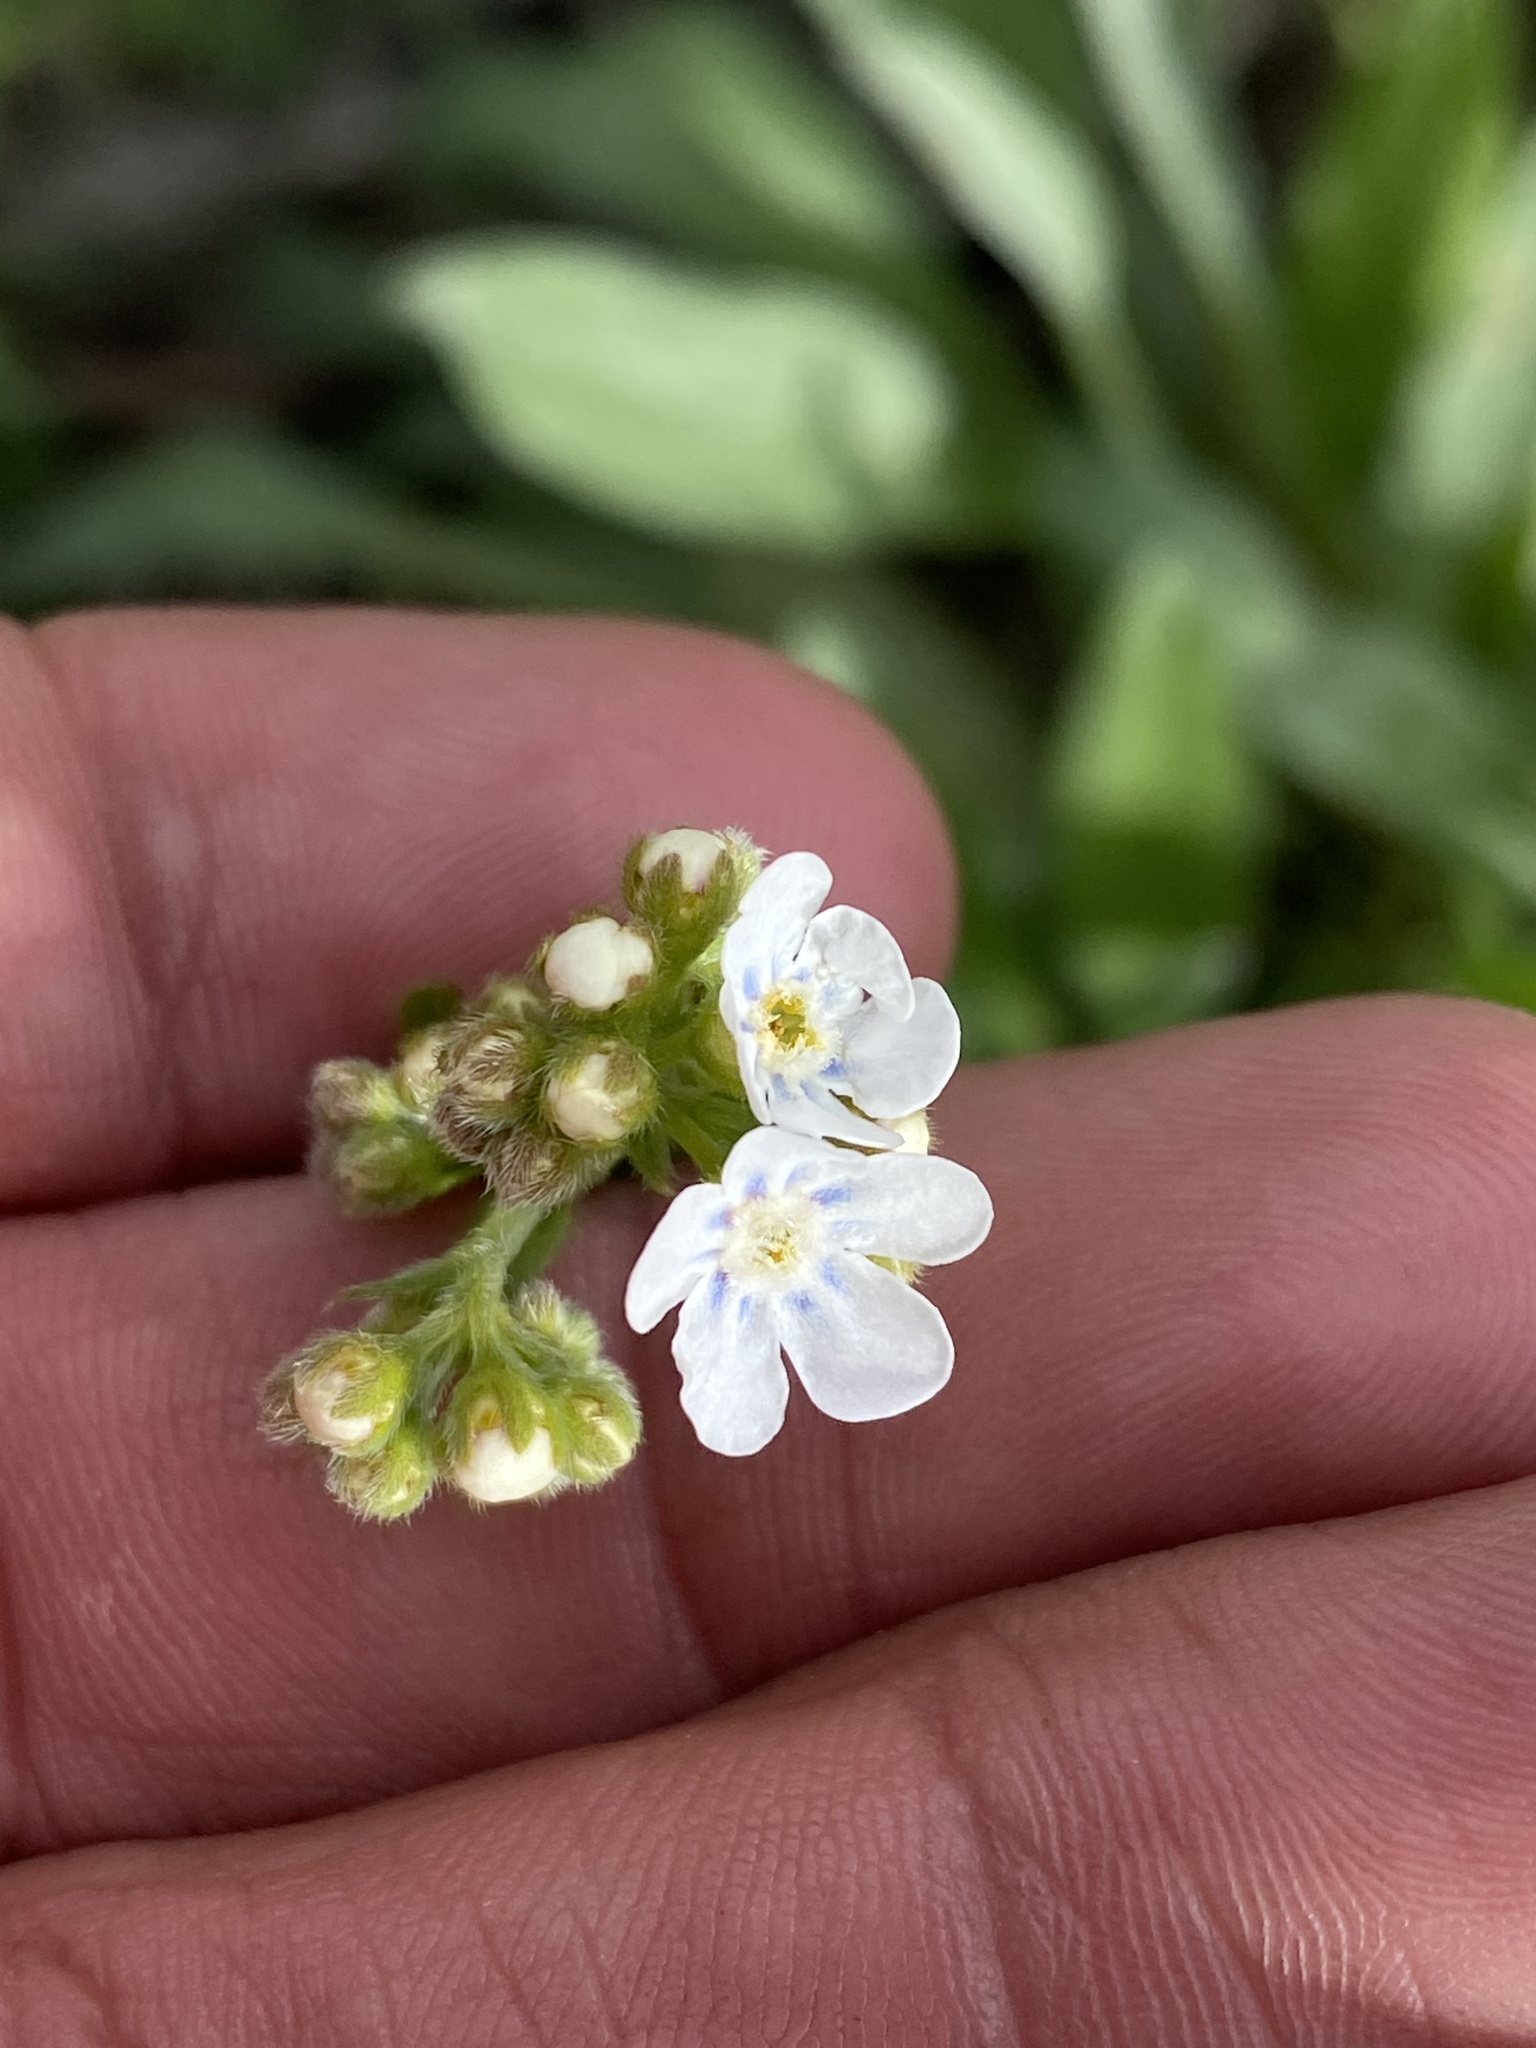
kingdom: Plantae
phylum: Tracheophyta
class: Magnoliopsida
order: Boraginales
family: Boraginaceae
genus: Hackelia
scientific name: Hackelia patens
